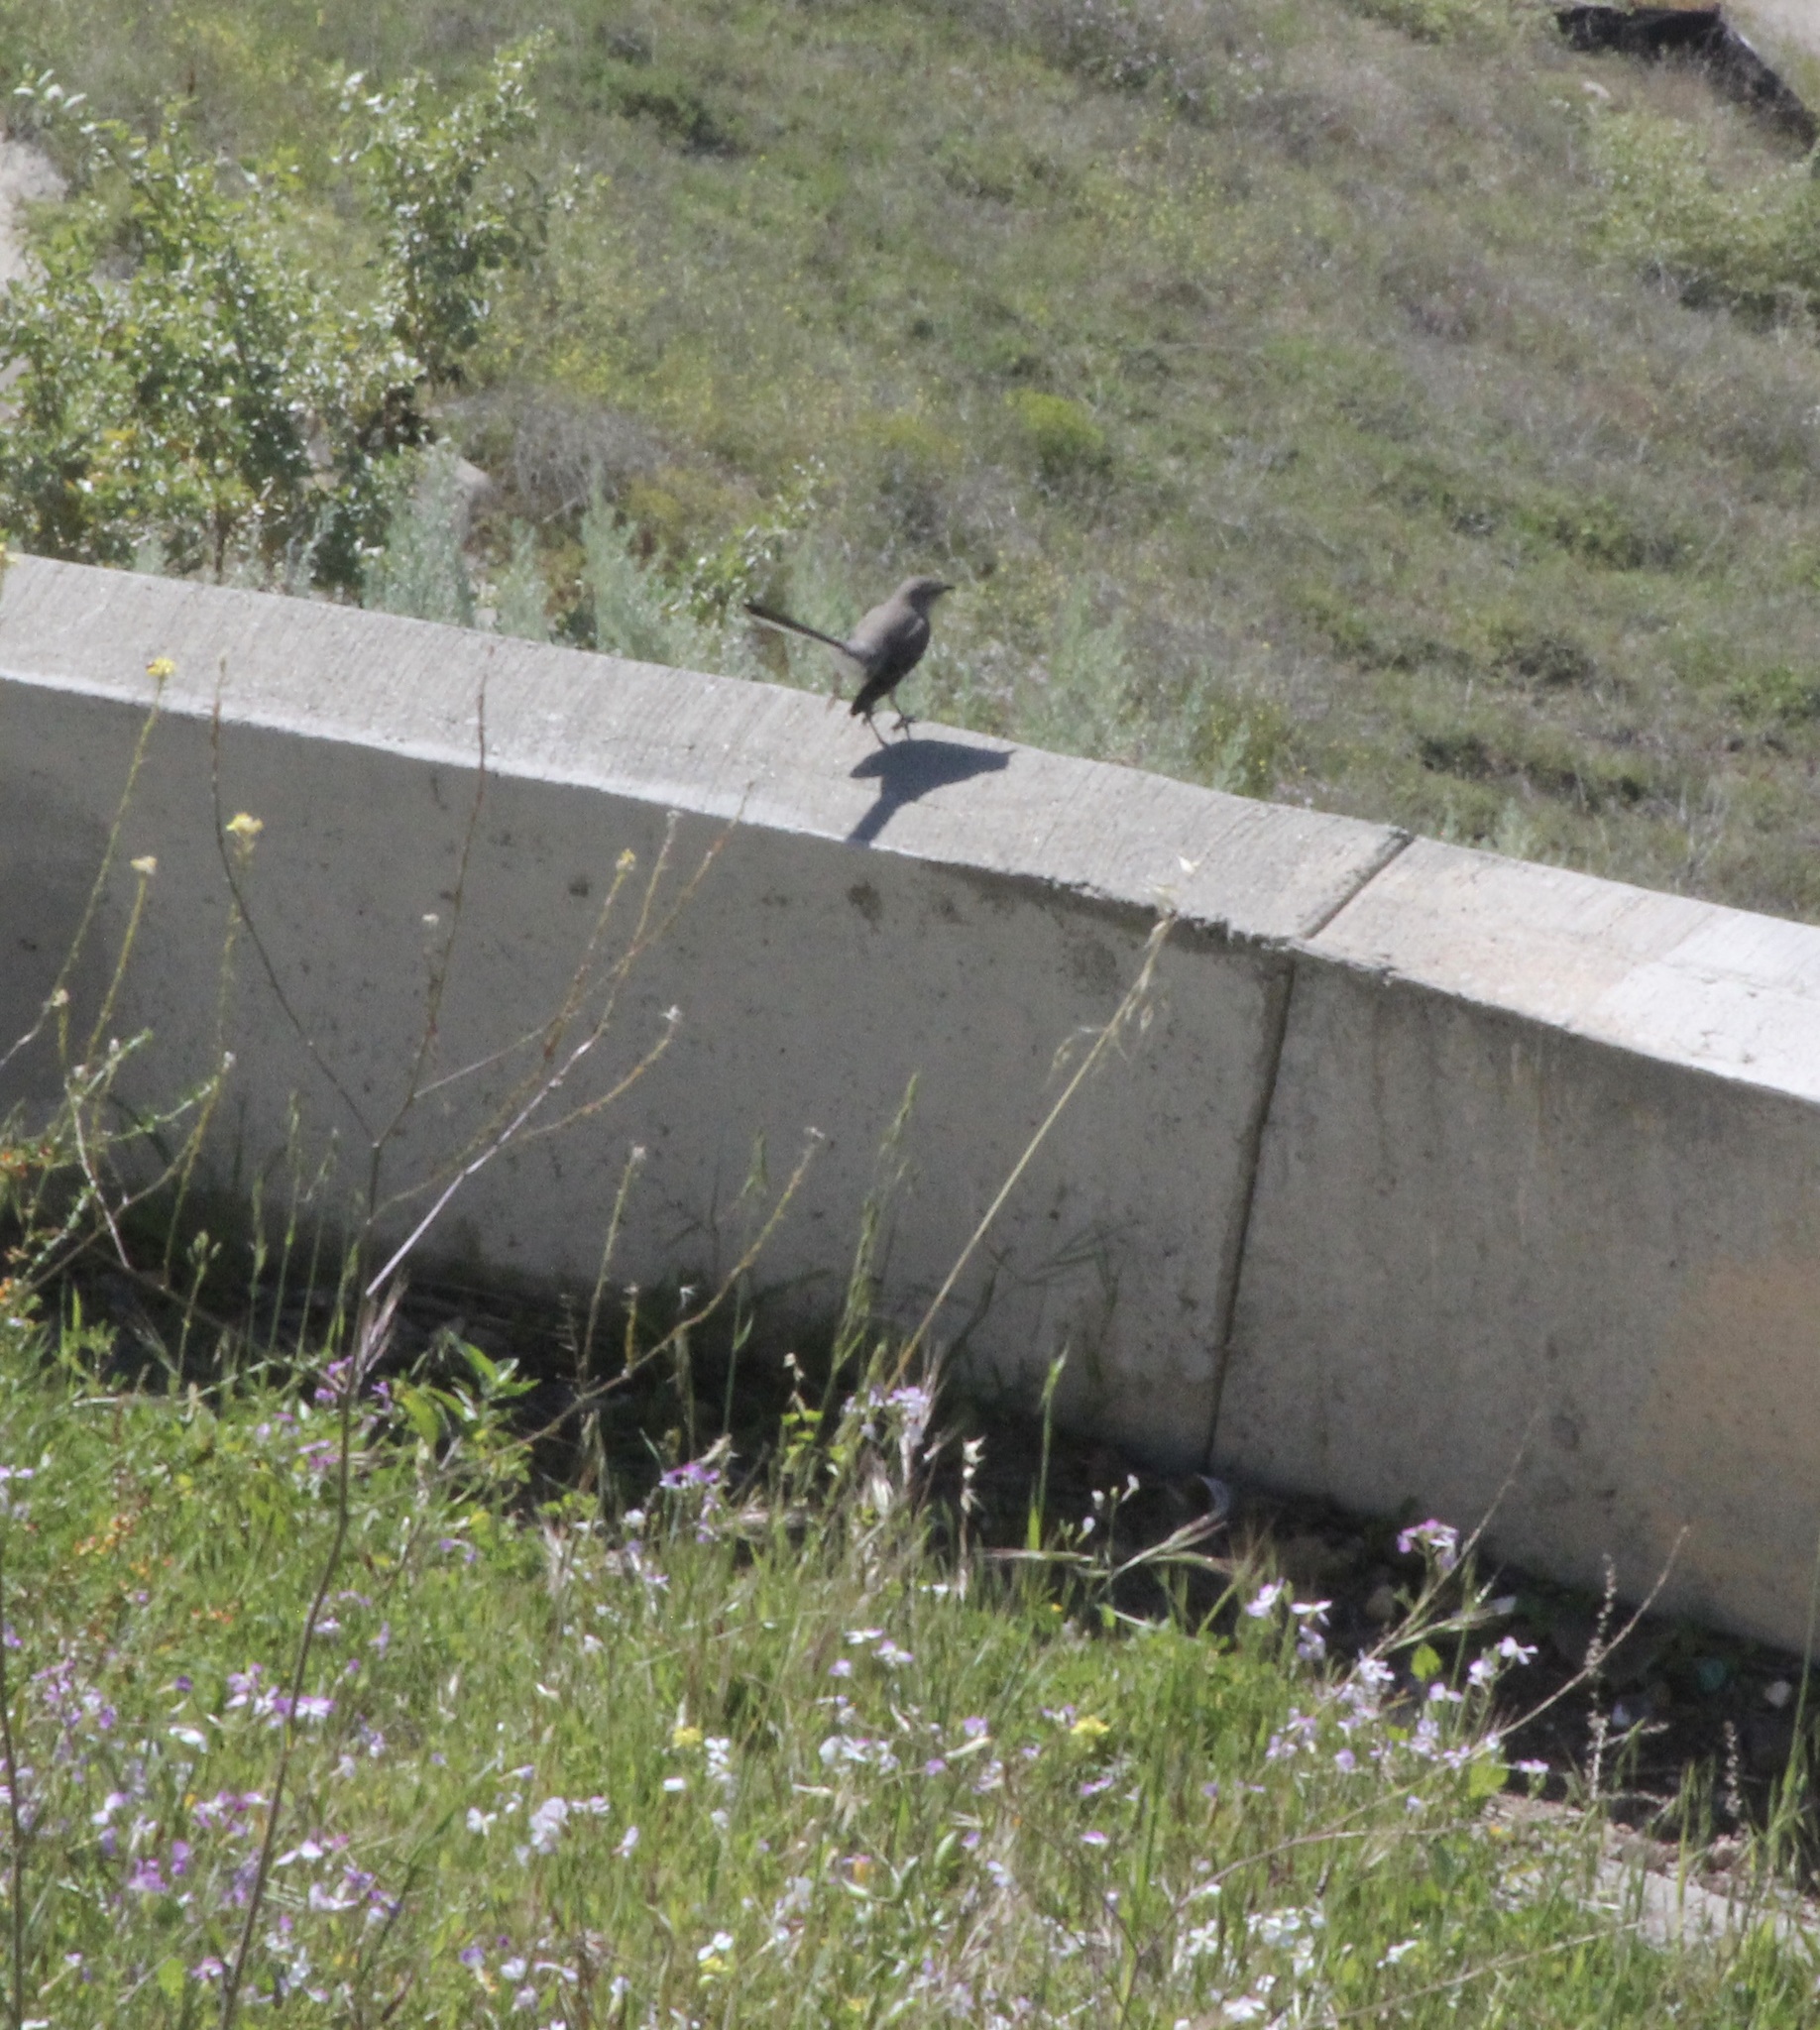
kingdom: Animalia
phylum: Chordata
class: Aves
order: Passeriformes
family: Mimidae
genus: Mimus
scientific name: Mimus polyglottos
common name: Northern mockingbird
